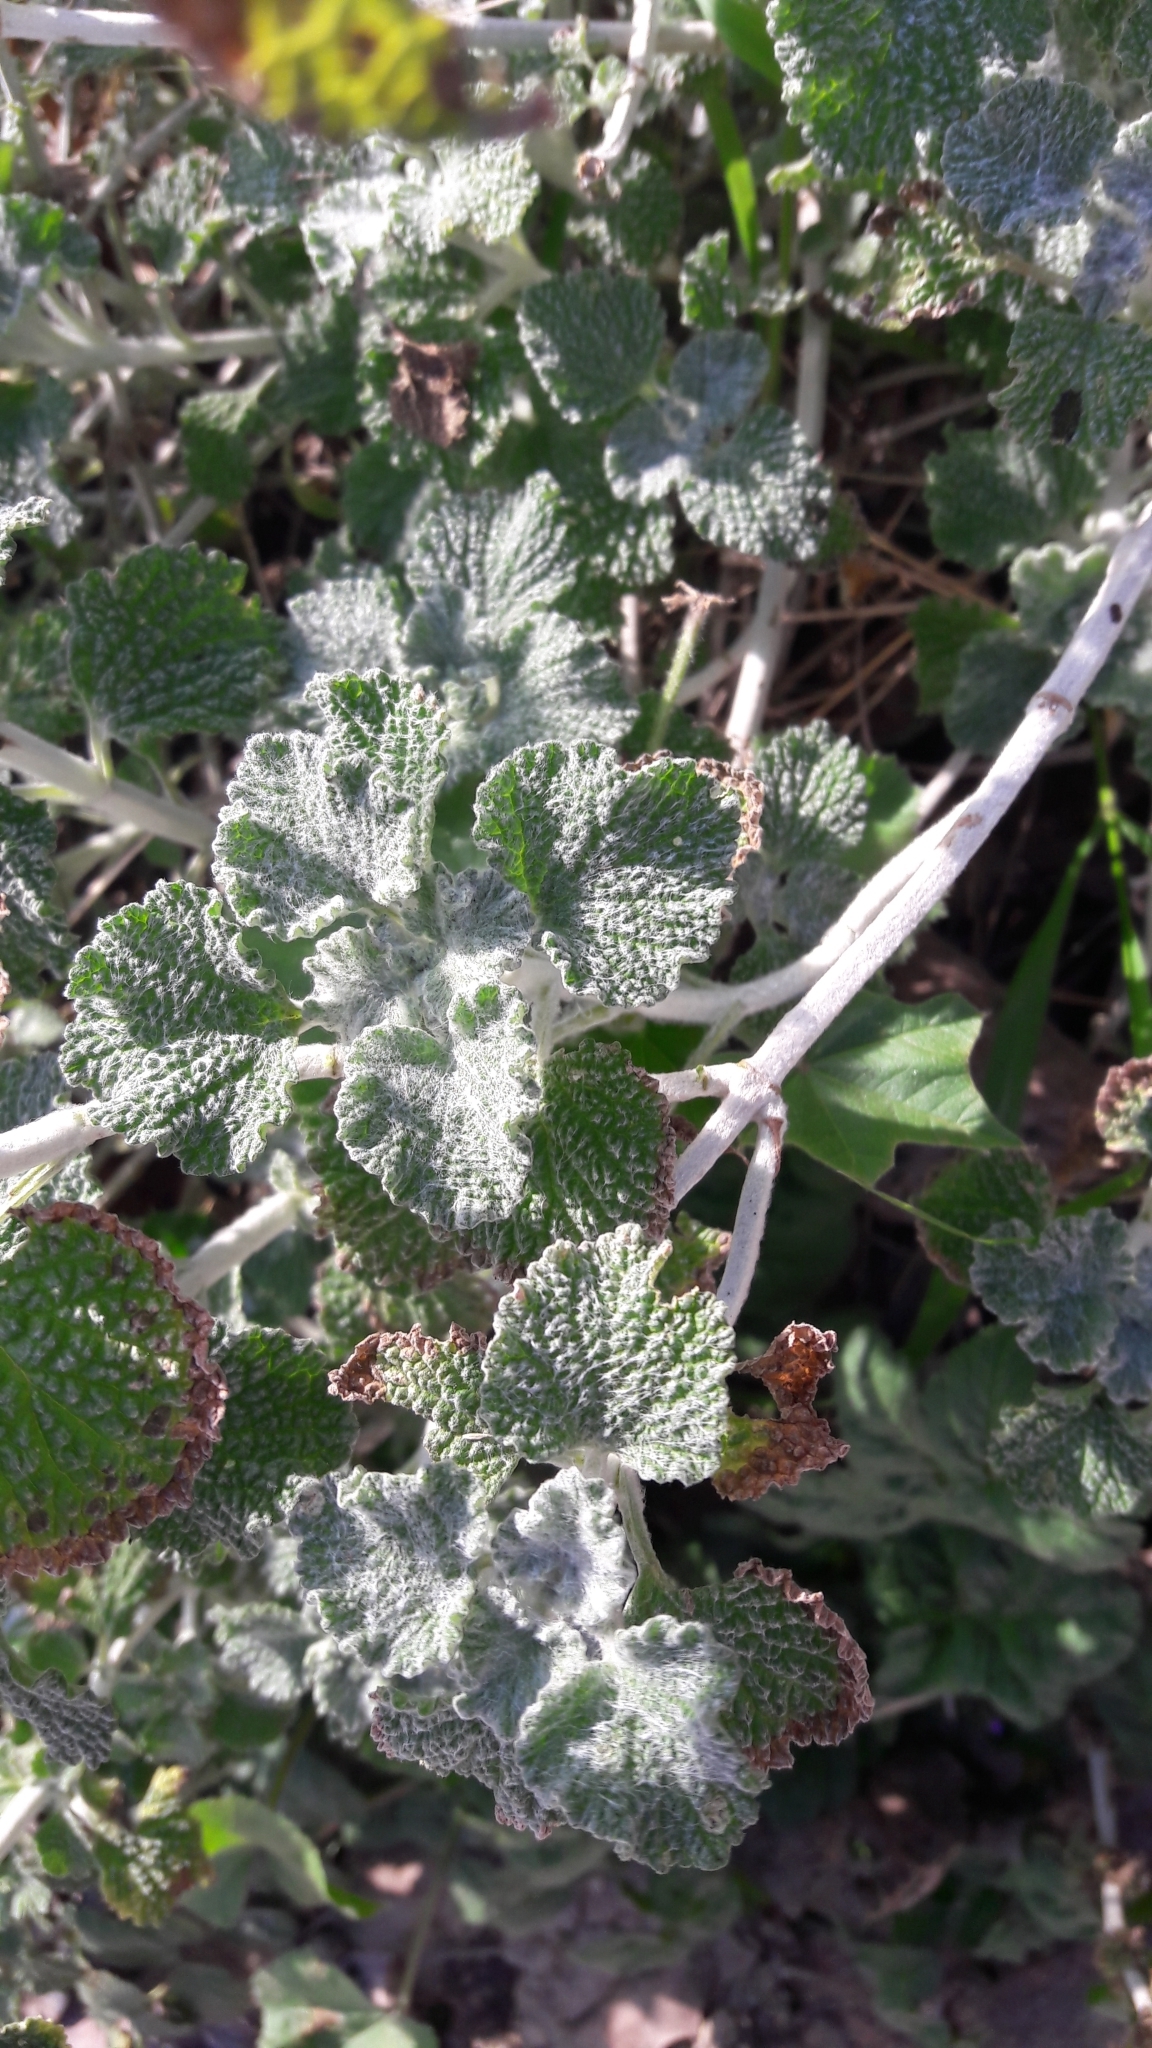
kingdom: Plantae
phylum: Tracheophyta
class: Magnoliopsida
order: Lamiales
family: Lamiaceae
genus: Marrubium
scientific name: Marrubium vulgare
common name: Horehound
